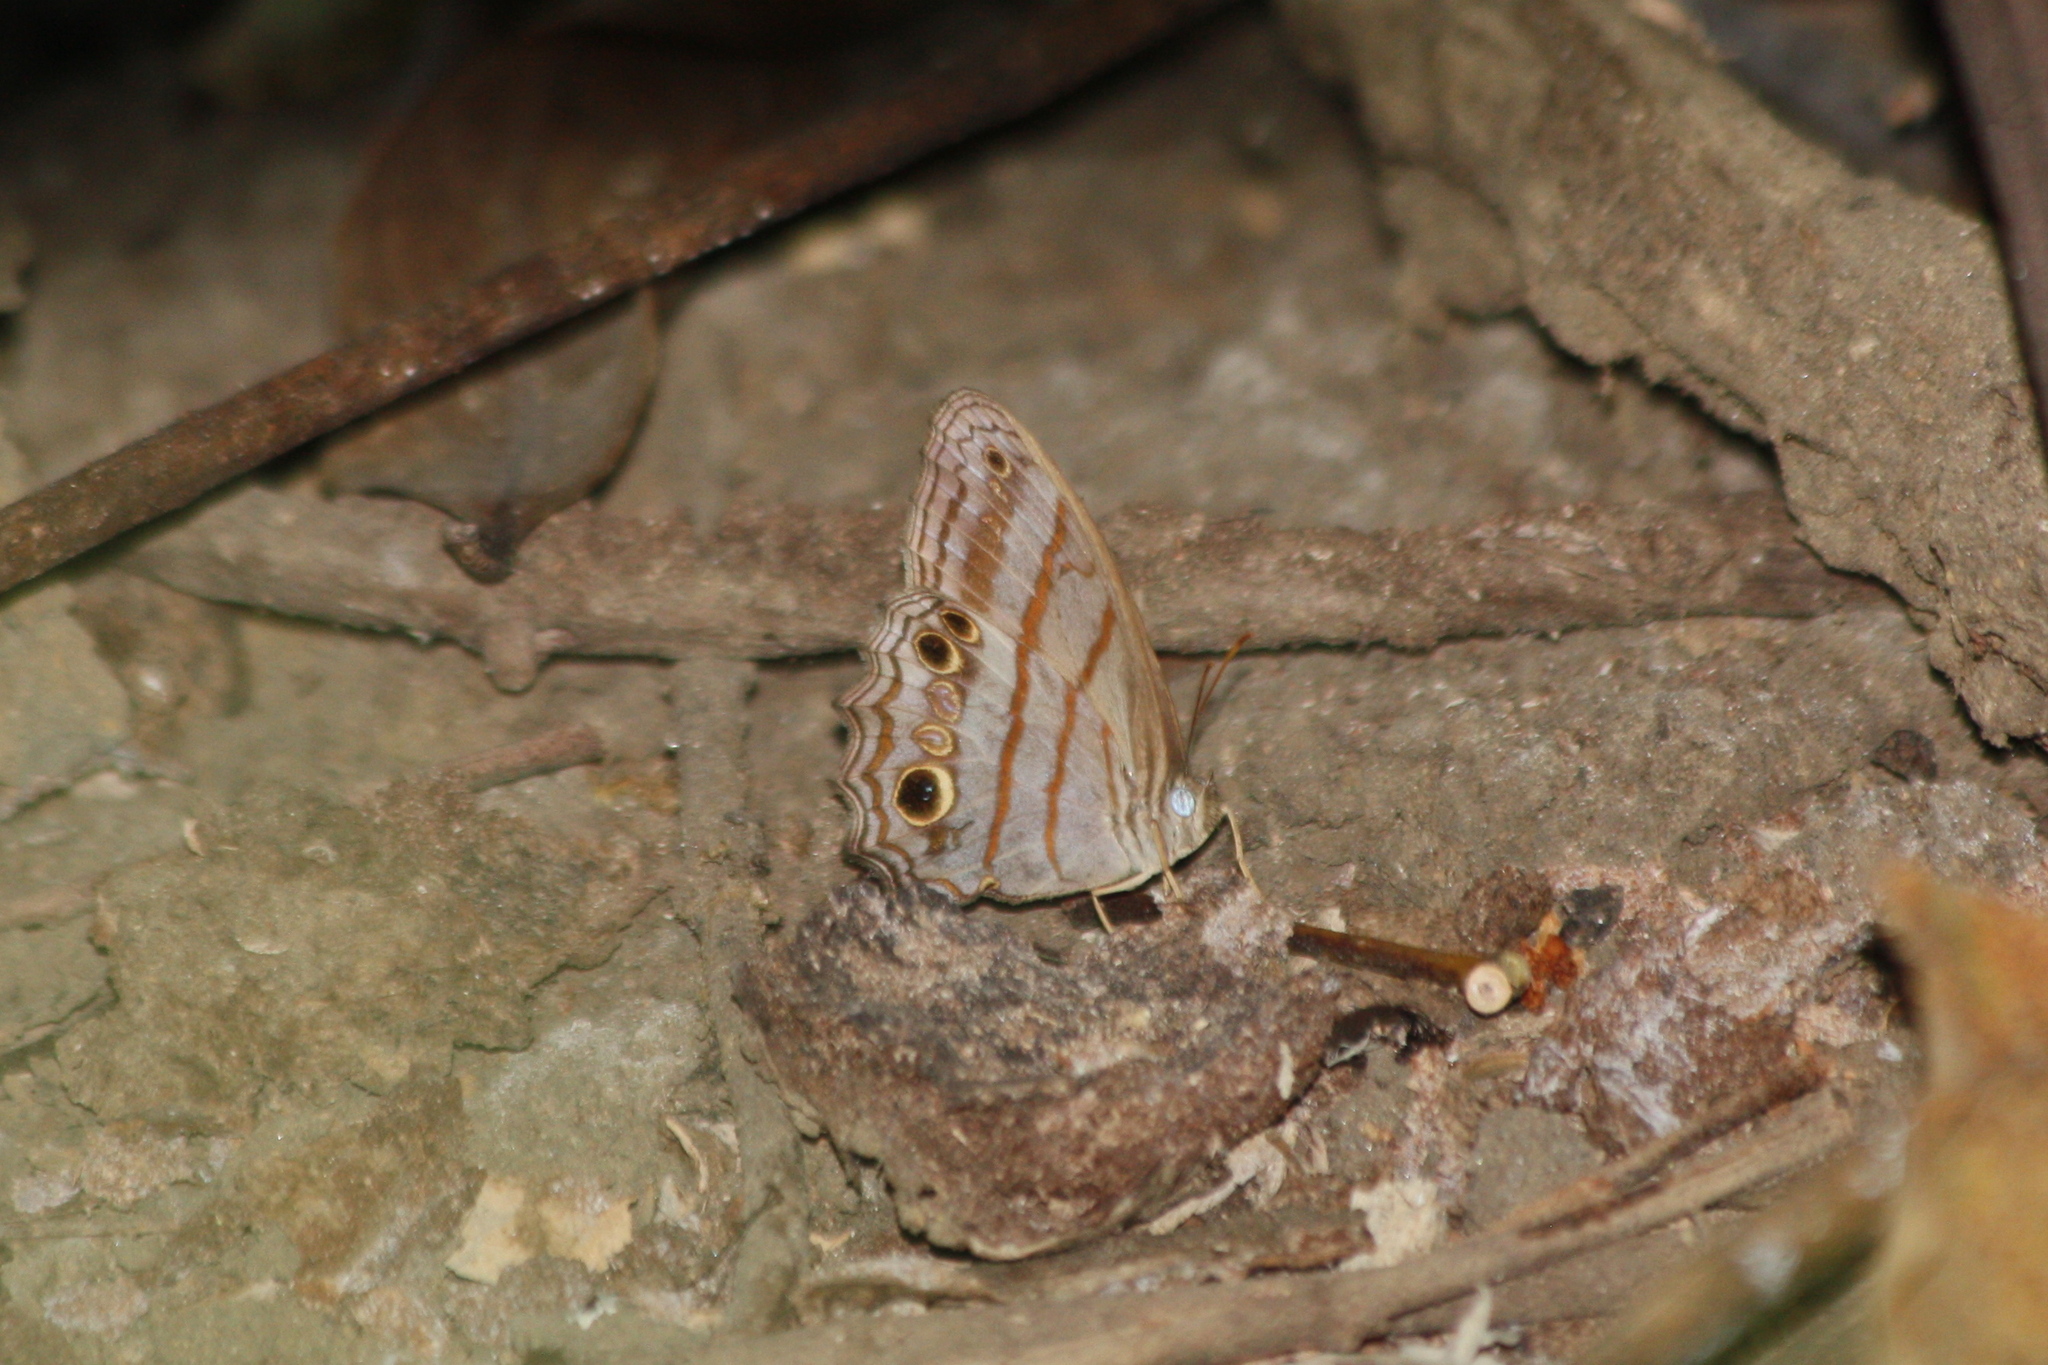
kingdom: Animalia
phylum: Arthropoda
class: Insecta
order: Lepidoptera
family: Nymphalidae
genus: Magneuptychia
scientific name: Magneuptychia libye
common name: Blue-gray satyr
